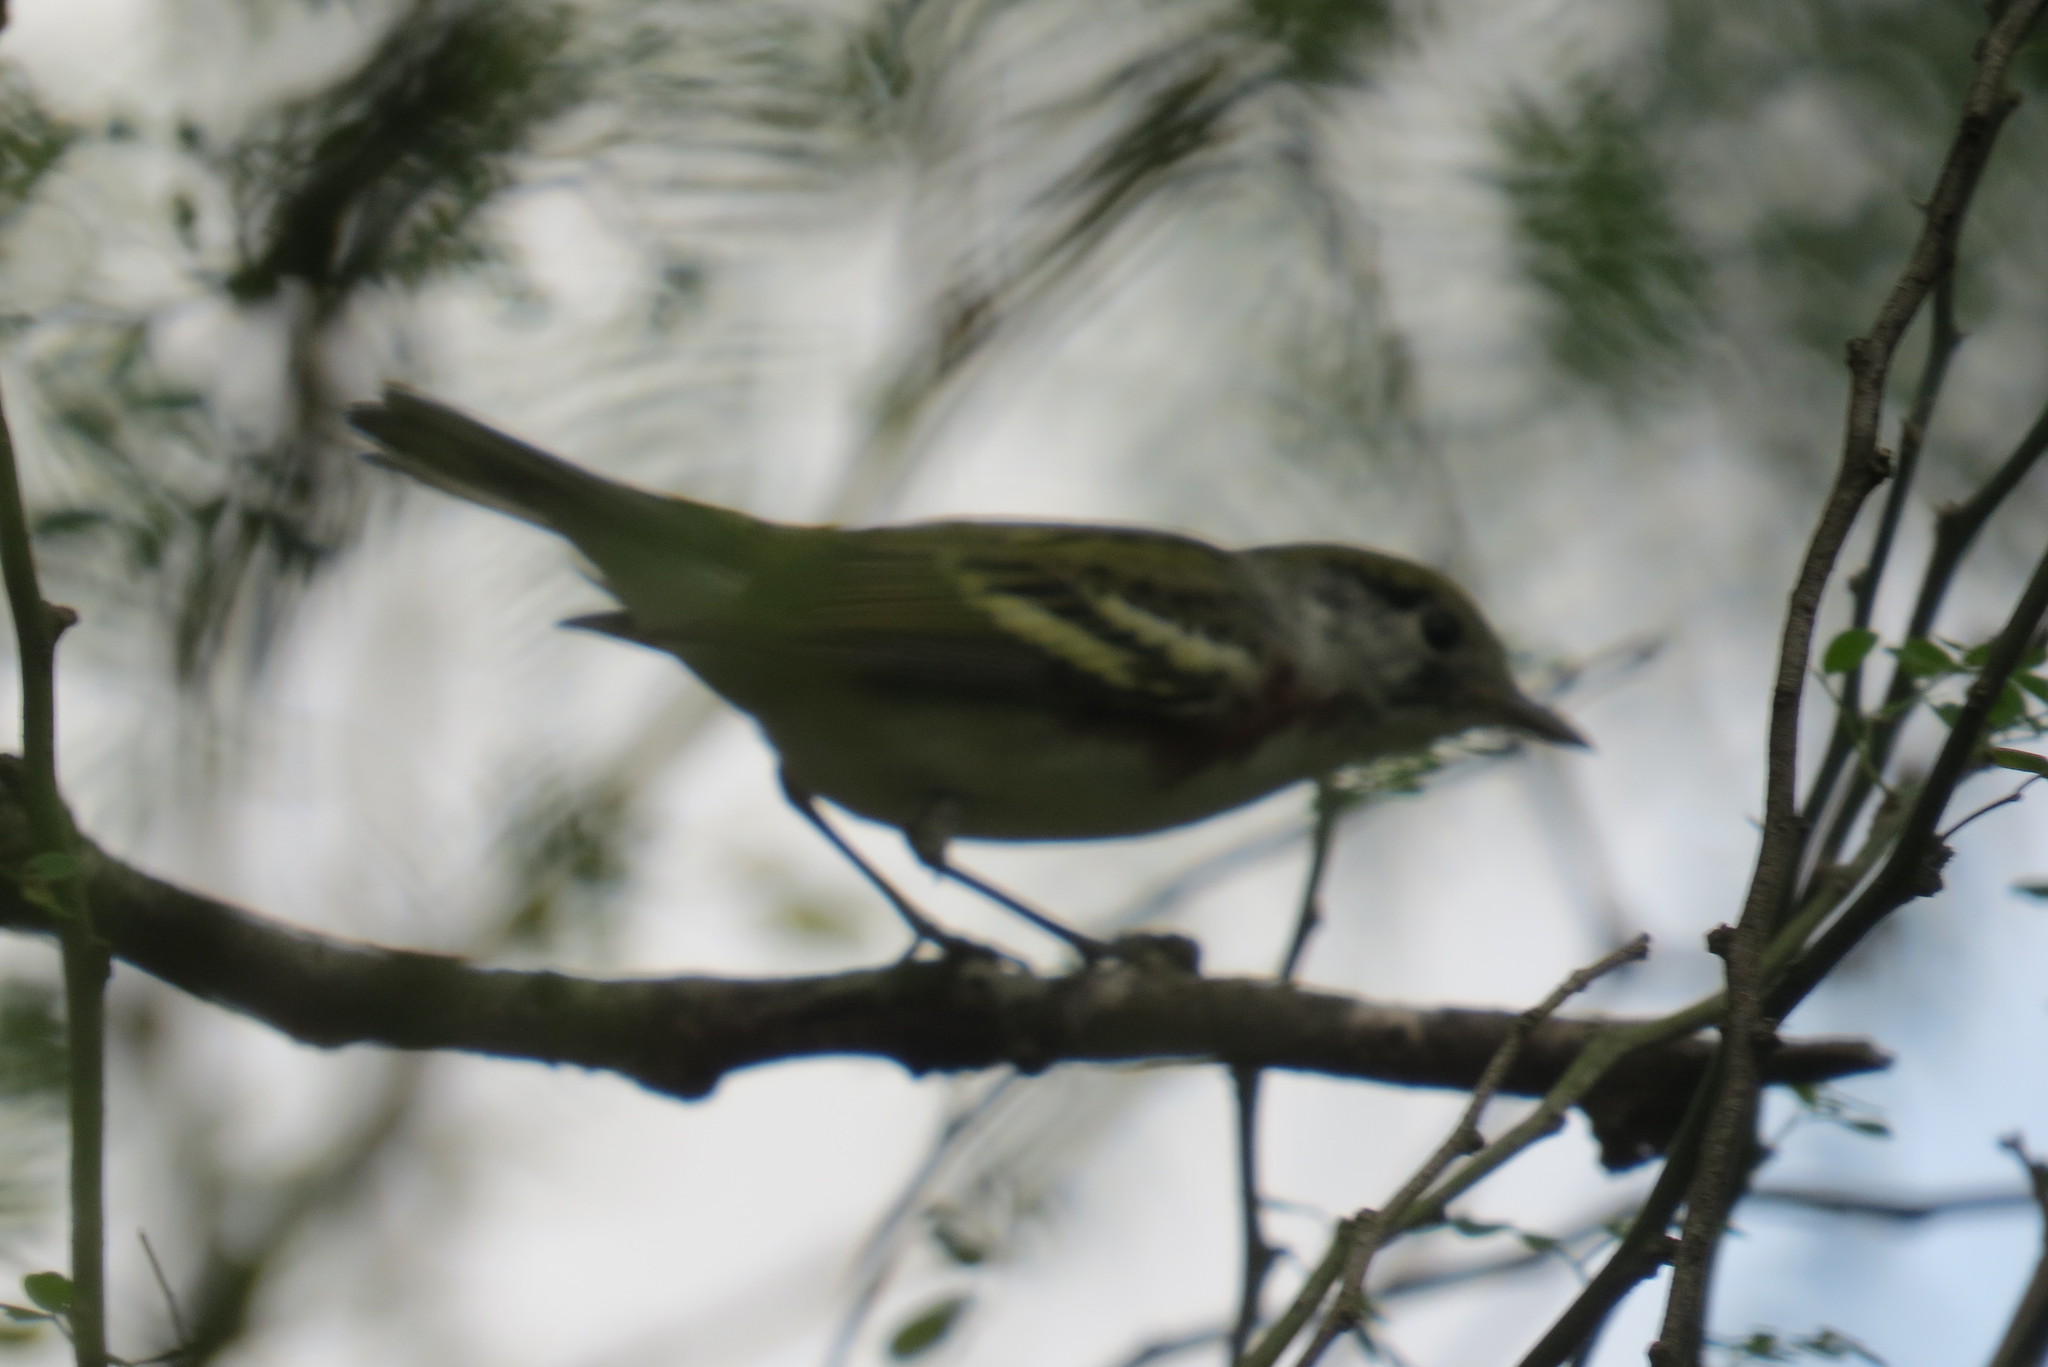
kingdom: Animalia
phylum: Chordata
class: Aves
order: Passeriformes
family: Parulidae
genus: Setophaga
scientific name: Setophaga pensylvanica
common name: Chestnut-sided warbler
